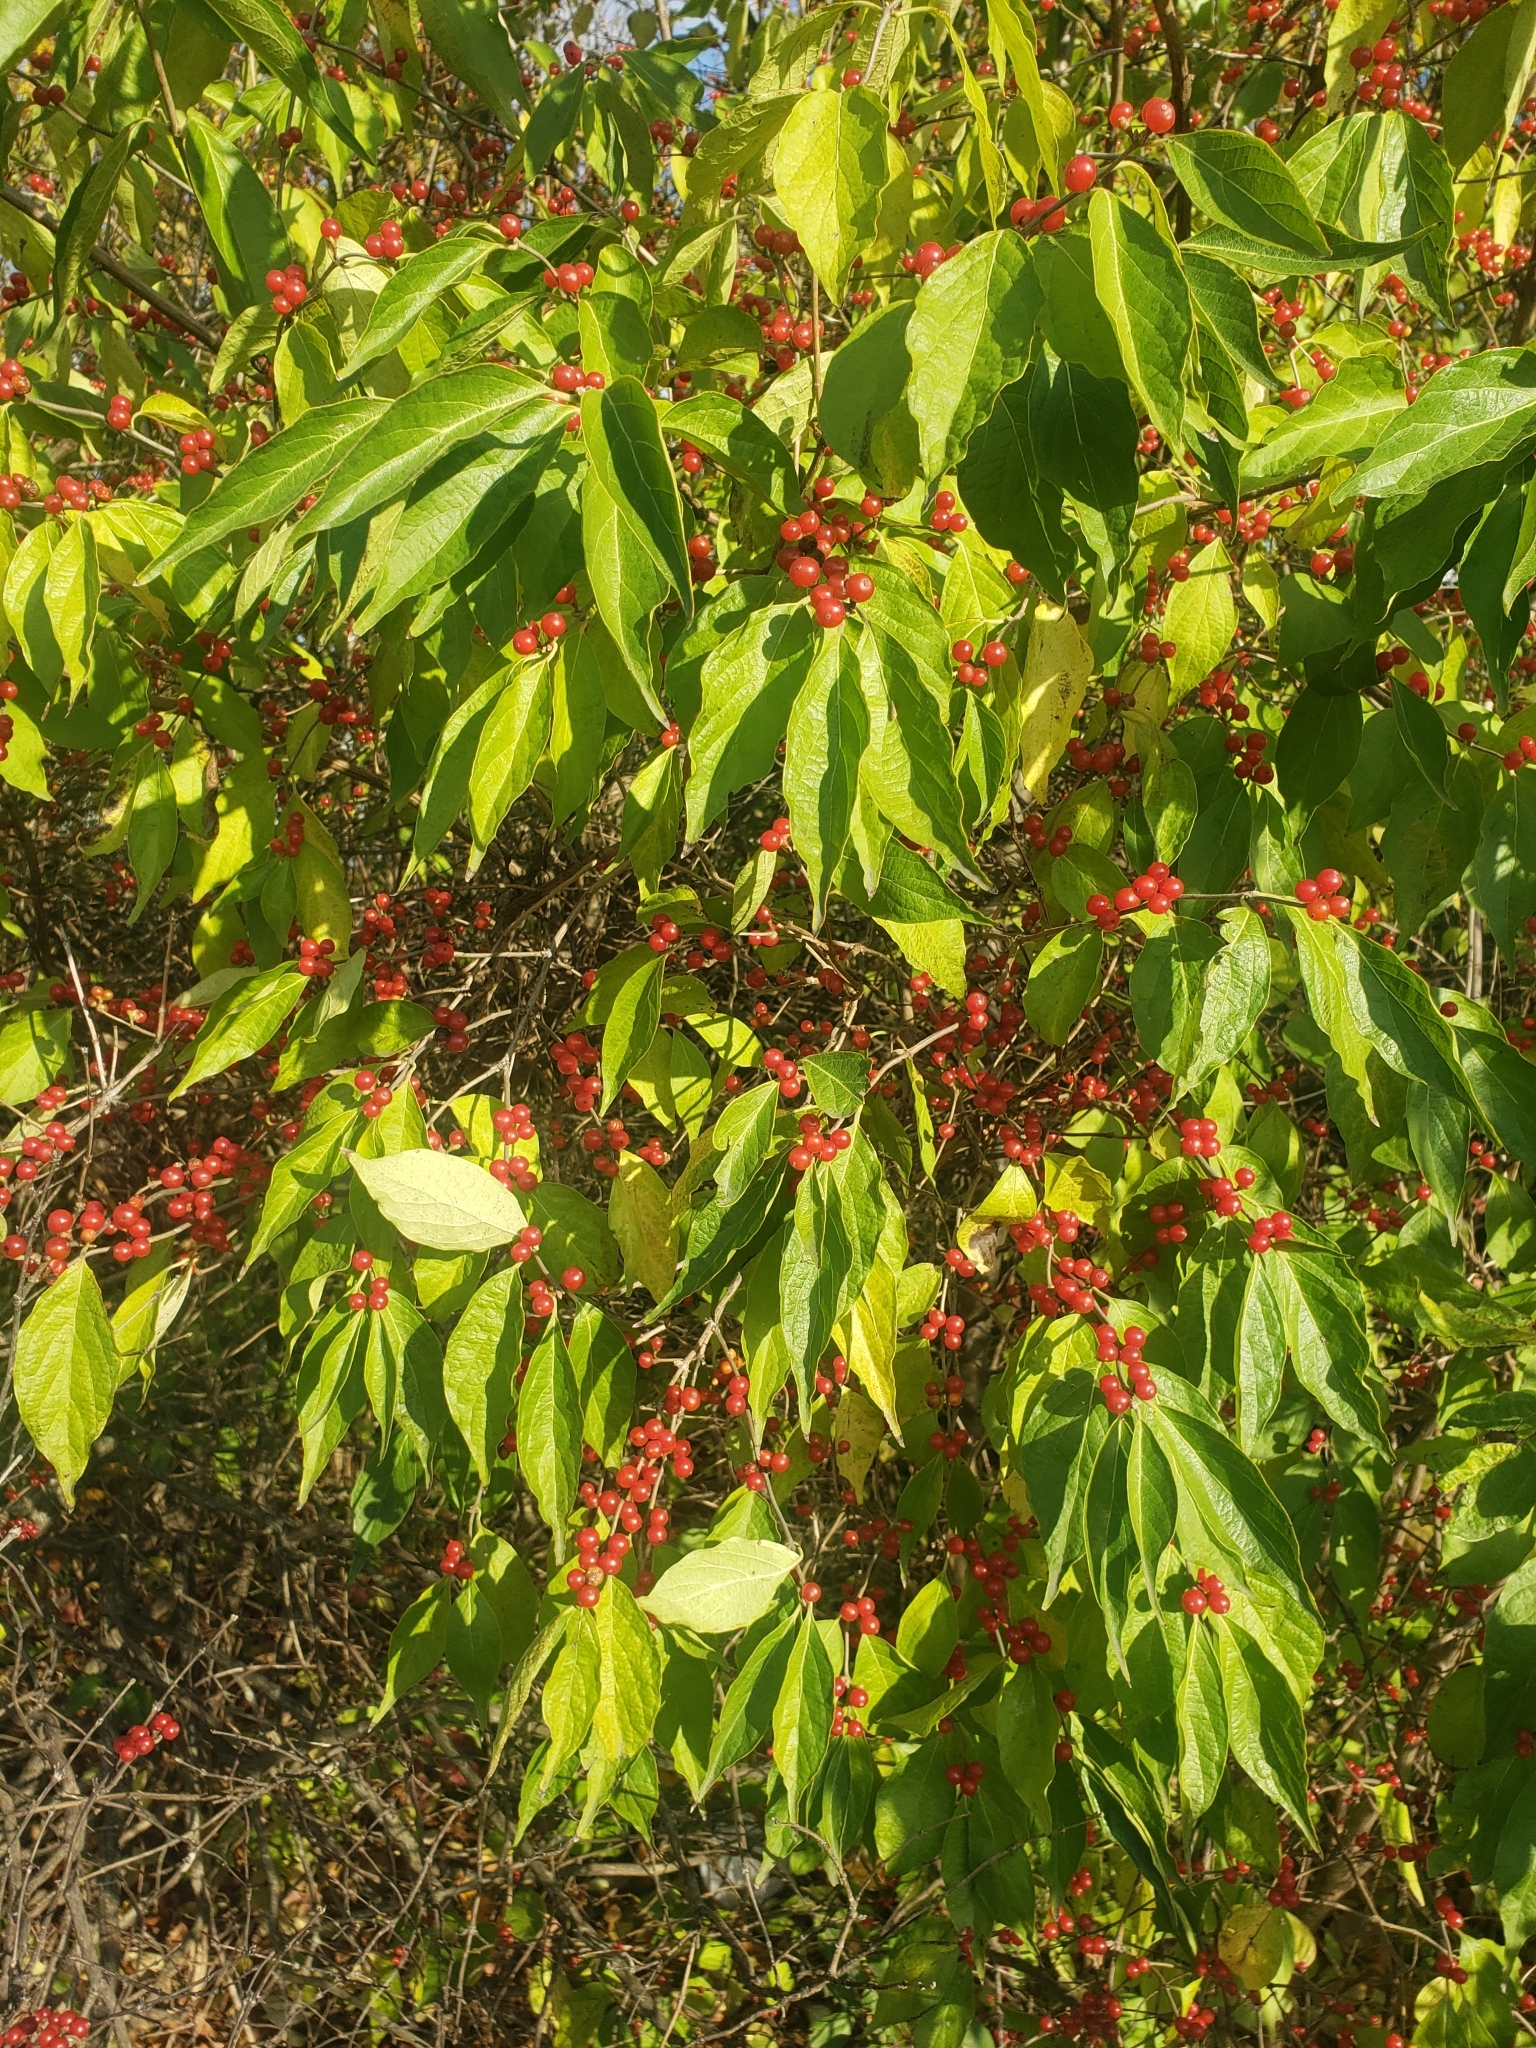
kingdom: Plantae
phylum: Tracheophyta
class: Magnoliopsida
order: Dipsacales
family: Caprifoliaceae
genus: Lonicera
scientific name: Lonicera maackii
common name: Amur honeysuckle
